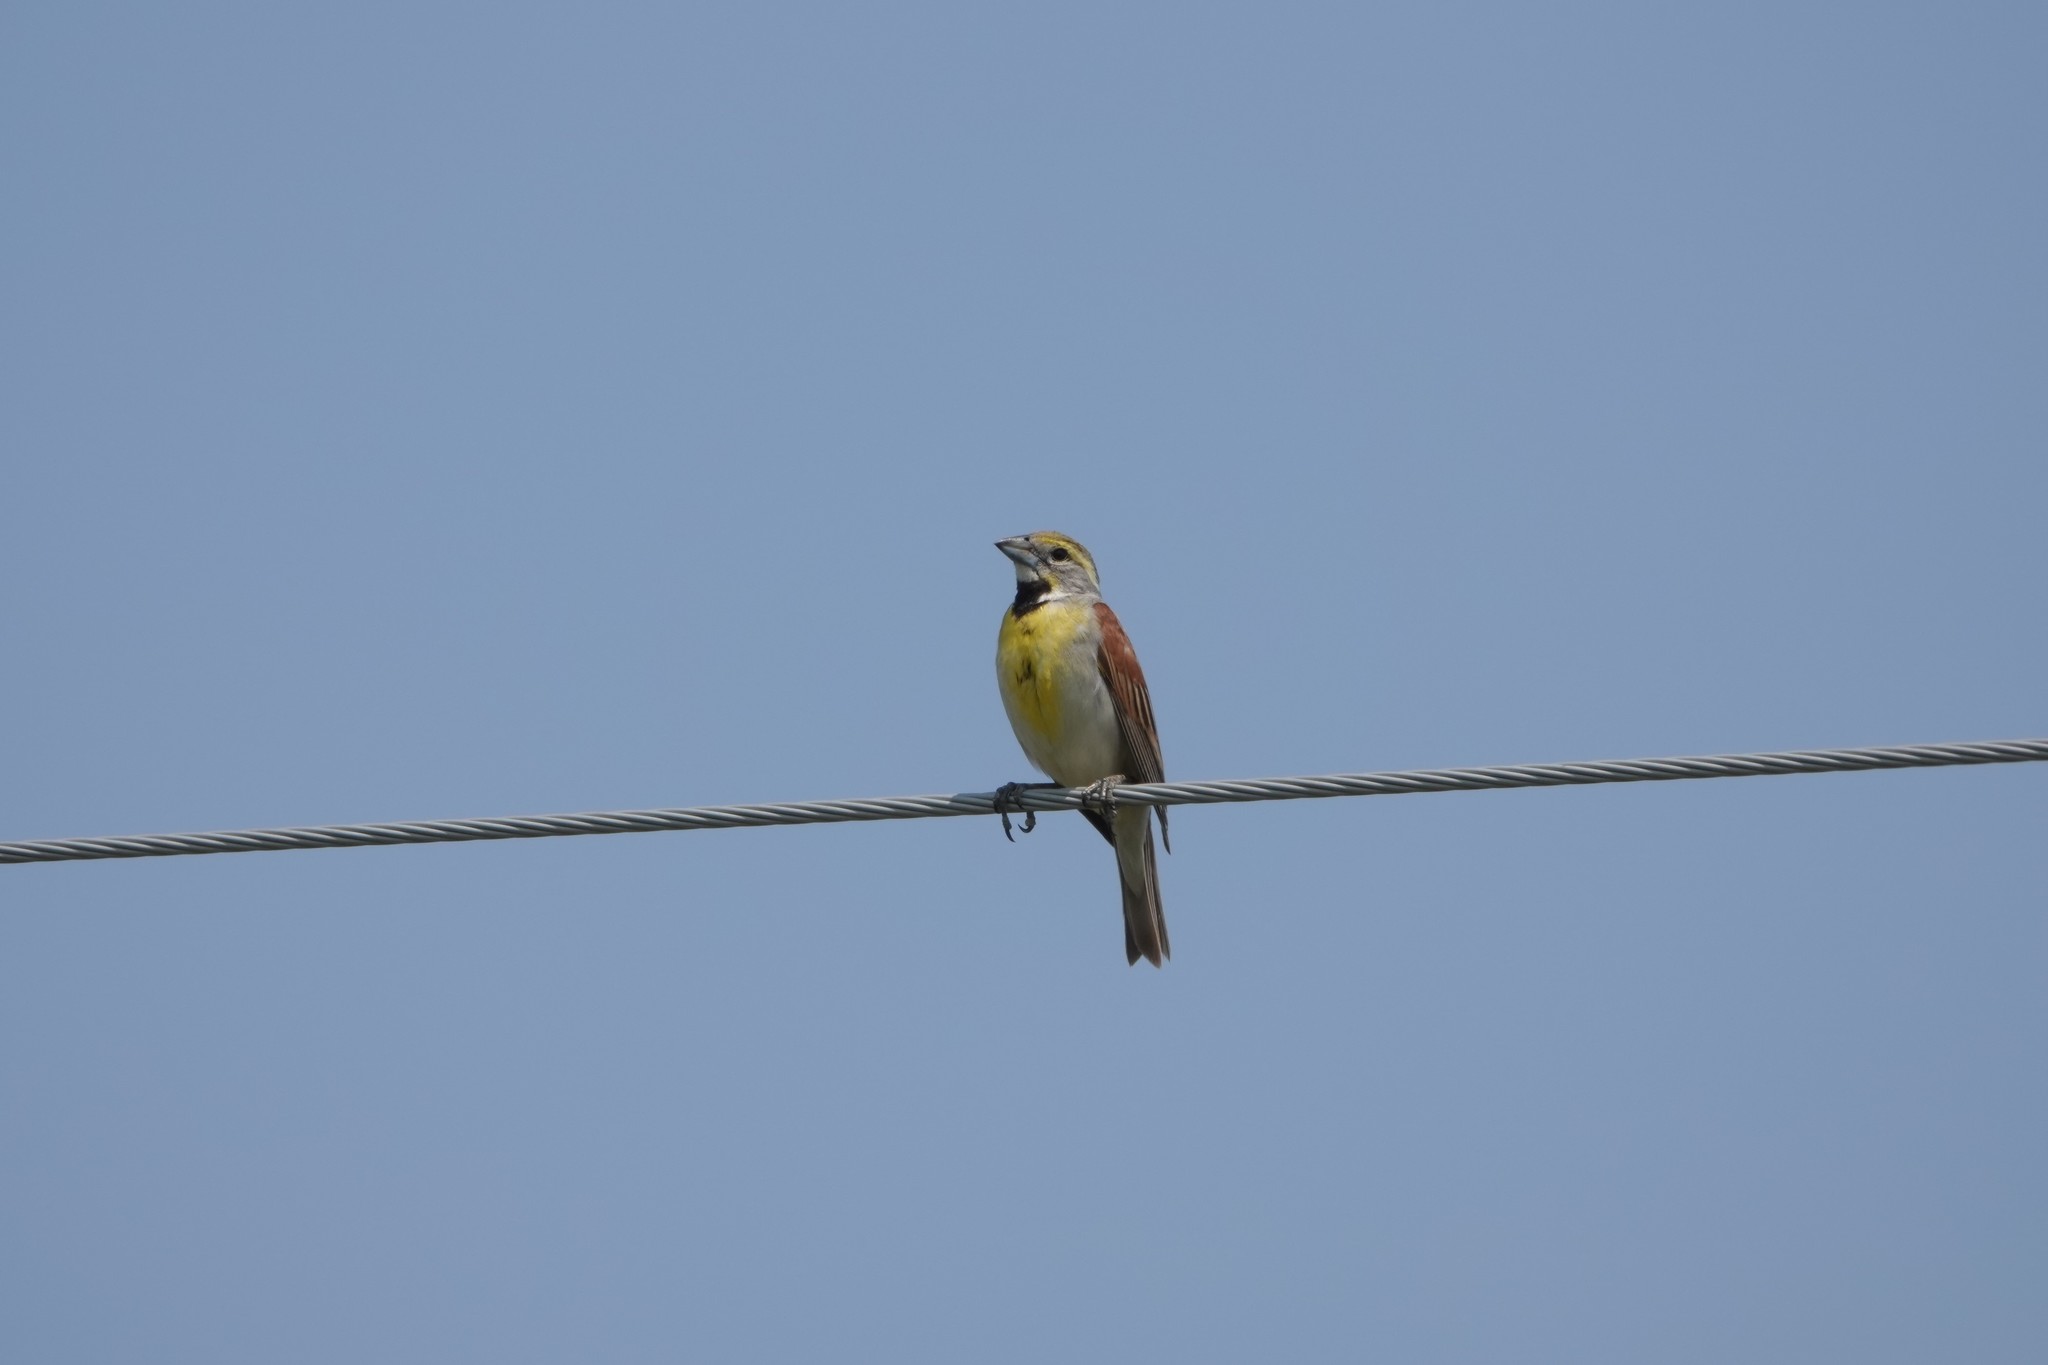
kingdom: Animalia
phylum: Chordata
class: Aves
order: Passeriformes
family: Cardinalidae
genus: Spiza
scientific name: Spiza americana
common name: Dickcissel
